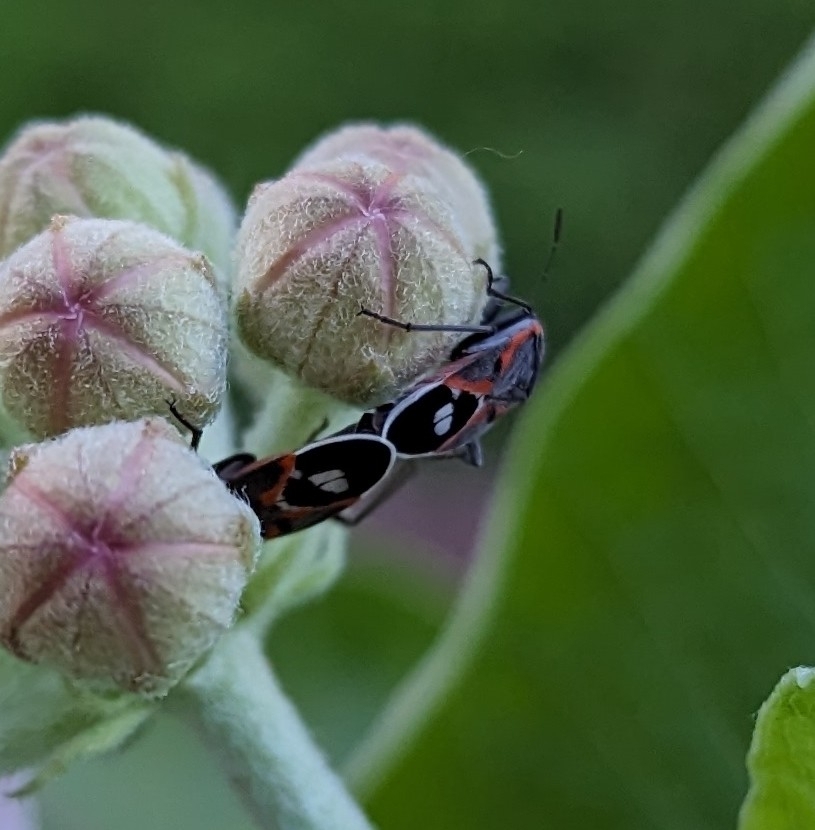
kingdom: Animalia
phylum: Arthropoda
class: Insecta
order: Hemiptera
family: Lygaeidae
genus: Lygaeus
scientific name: Lygaeus kalmii
